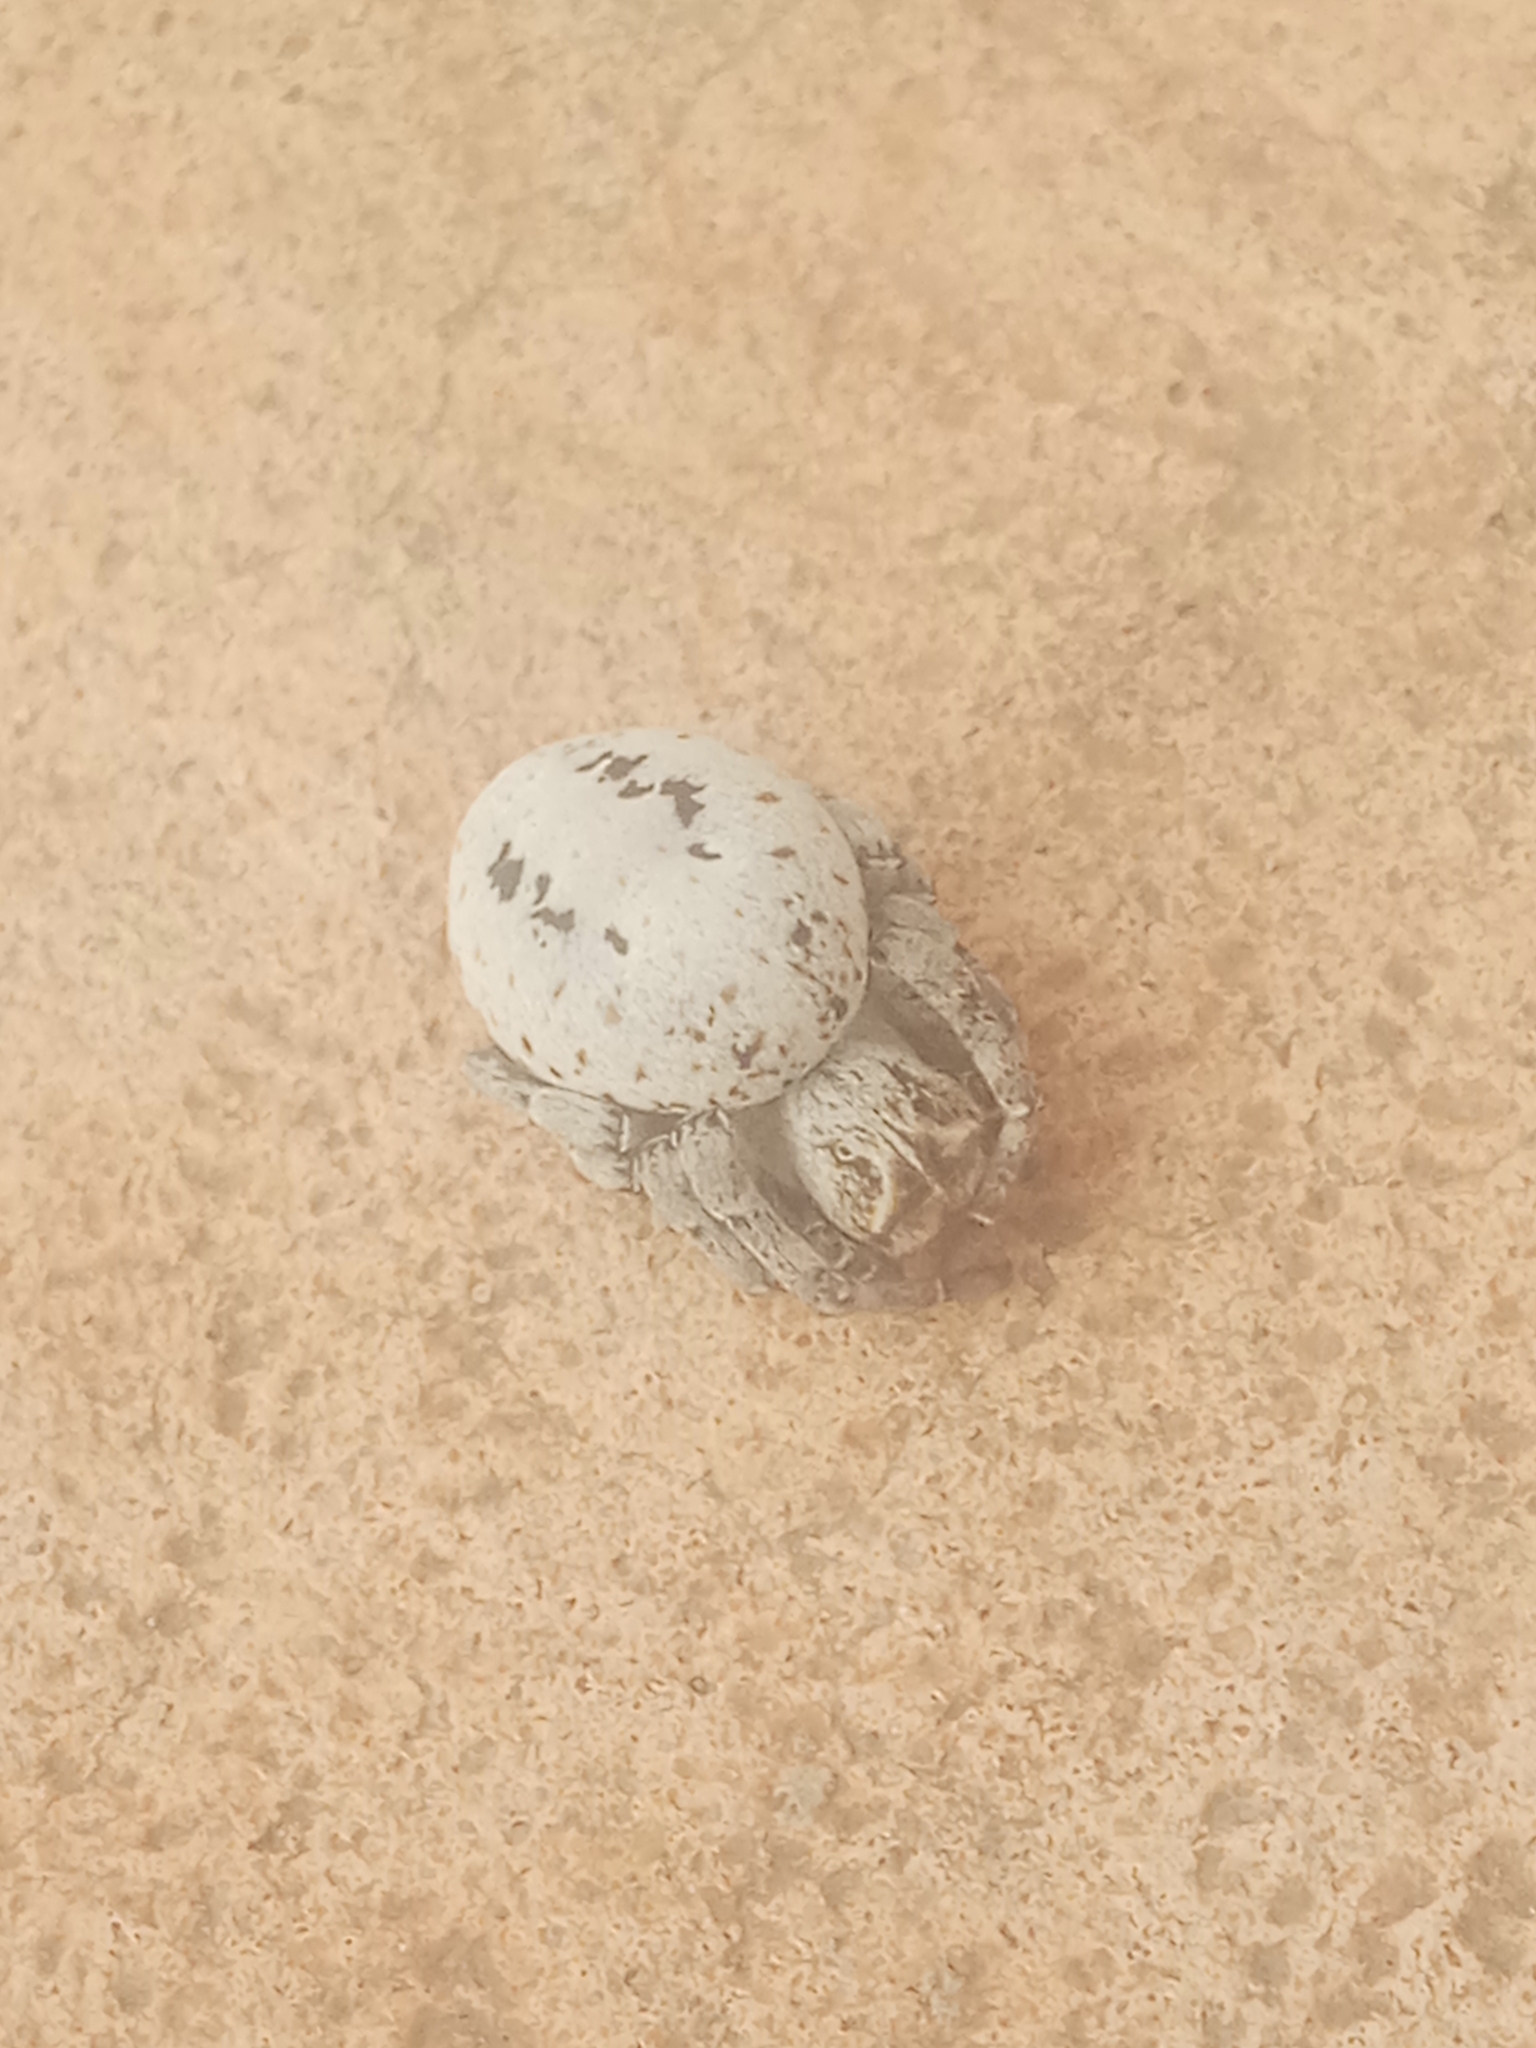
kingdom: Animalia
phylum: Arthropoda
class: Arachnida
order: Araneae
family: Eresidae
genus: Stegodyphus
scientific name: Stegodyphus lineatus
